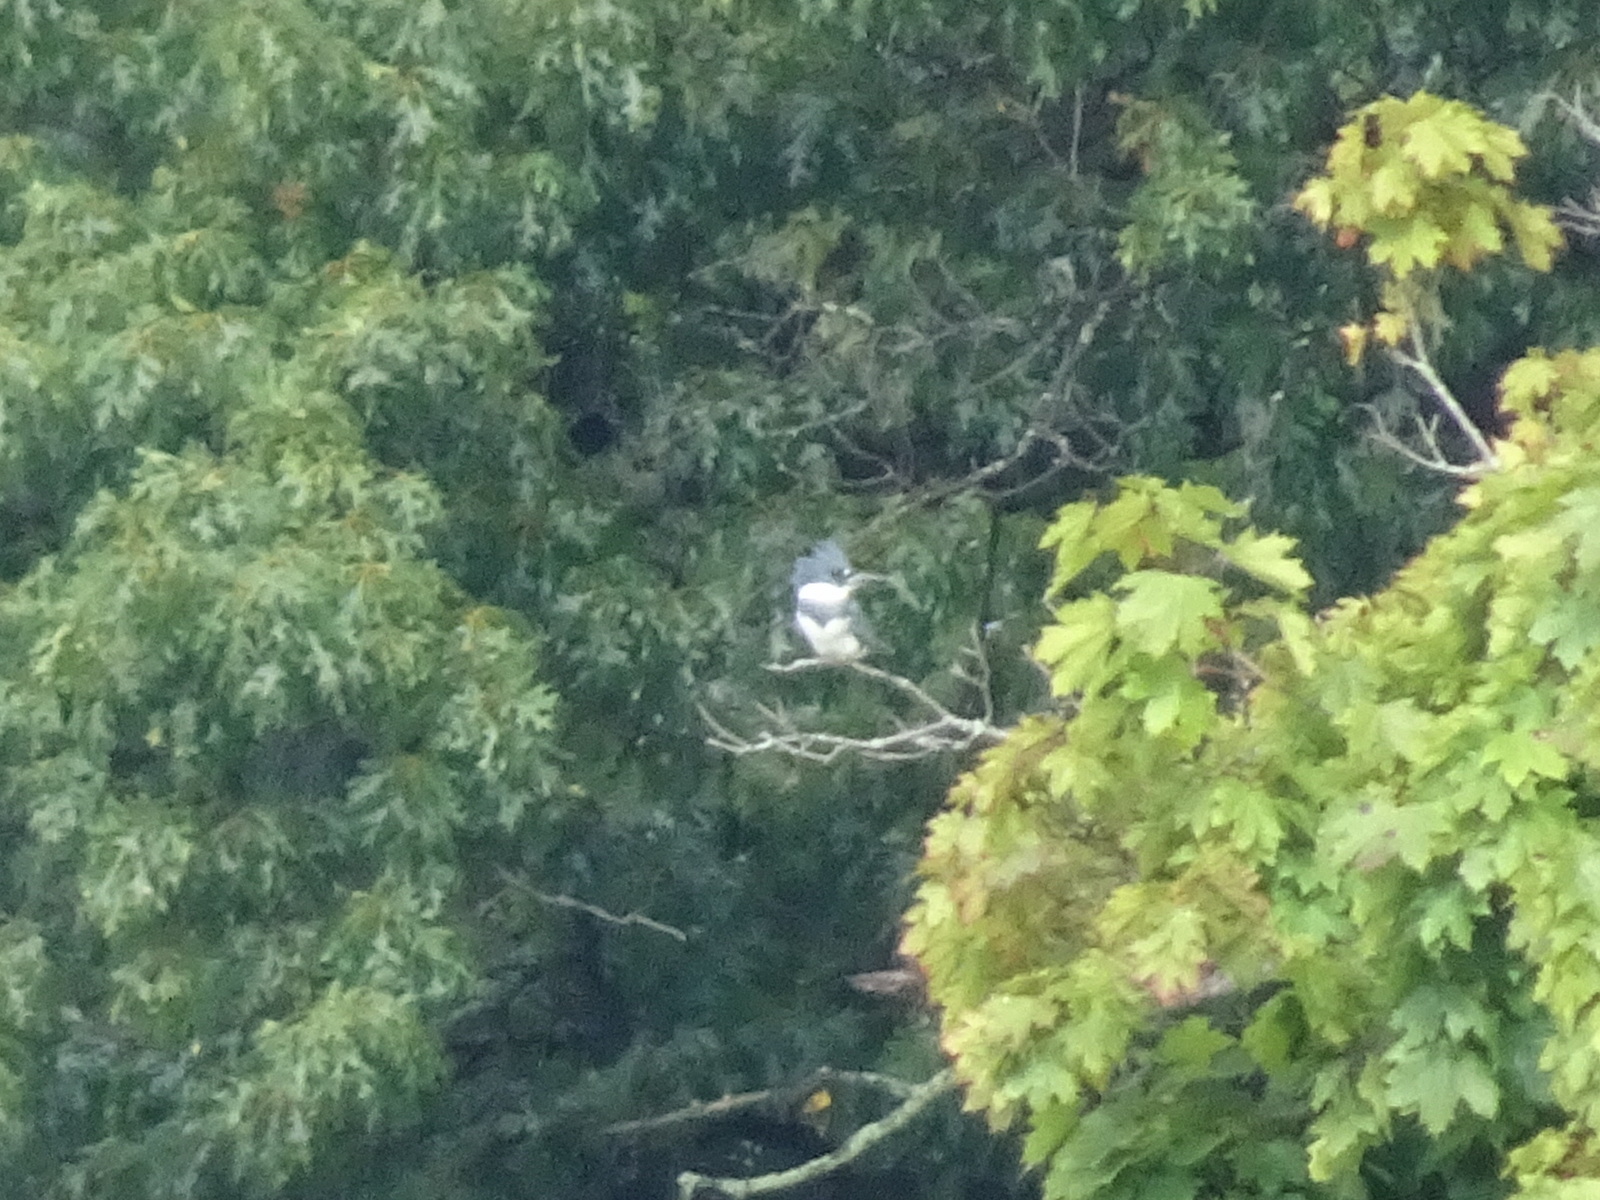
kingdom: Animalia
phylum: Chordata
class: Aves
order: Coraciiformes
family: Alcedinidae
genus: Megaceryle
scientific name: Megaceryle alcyon
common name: Belted kingfisher
